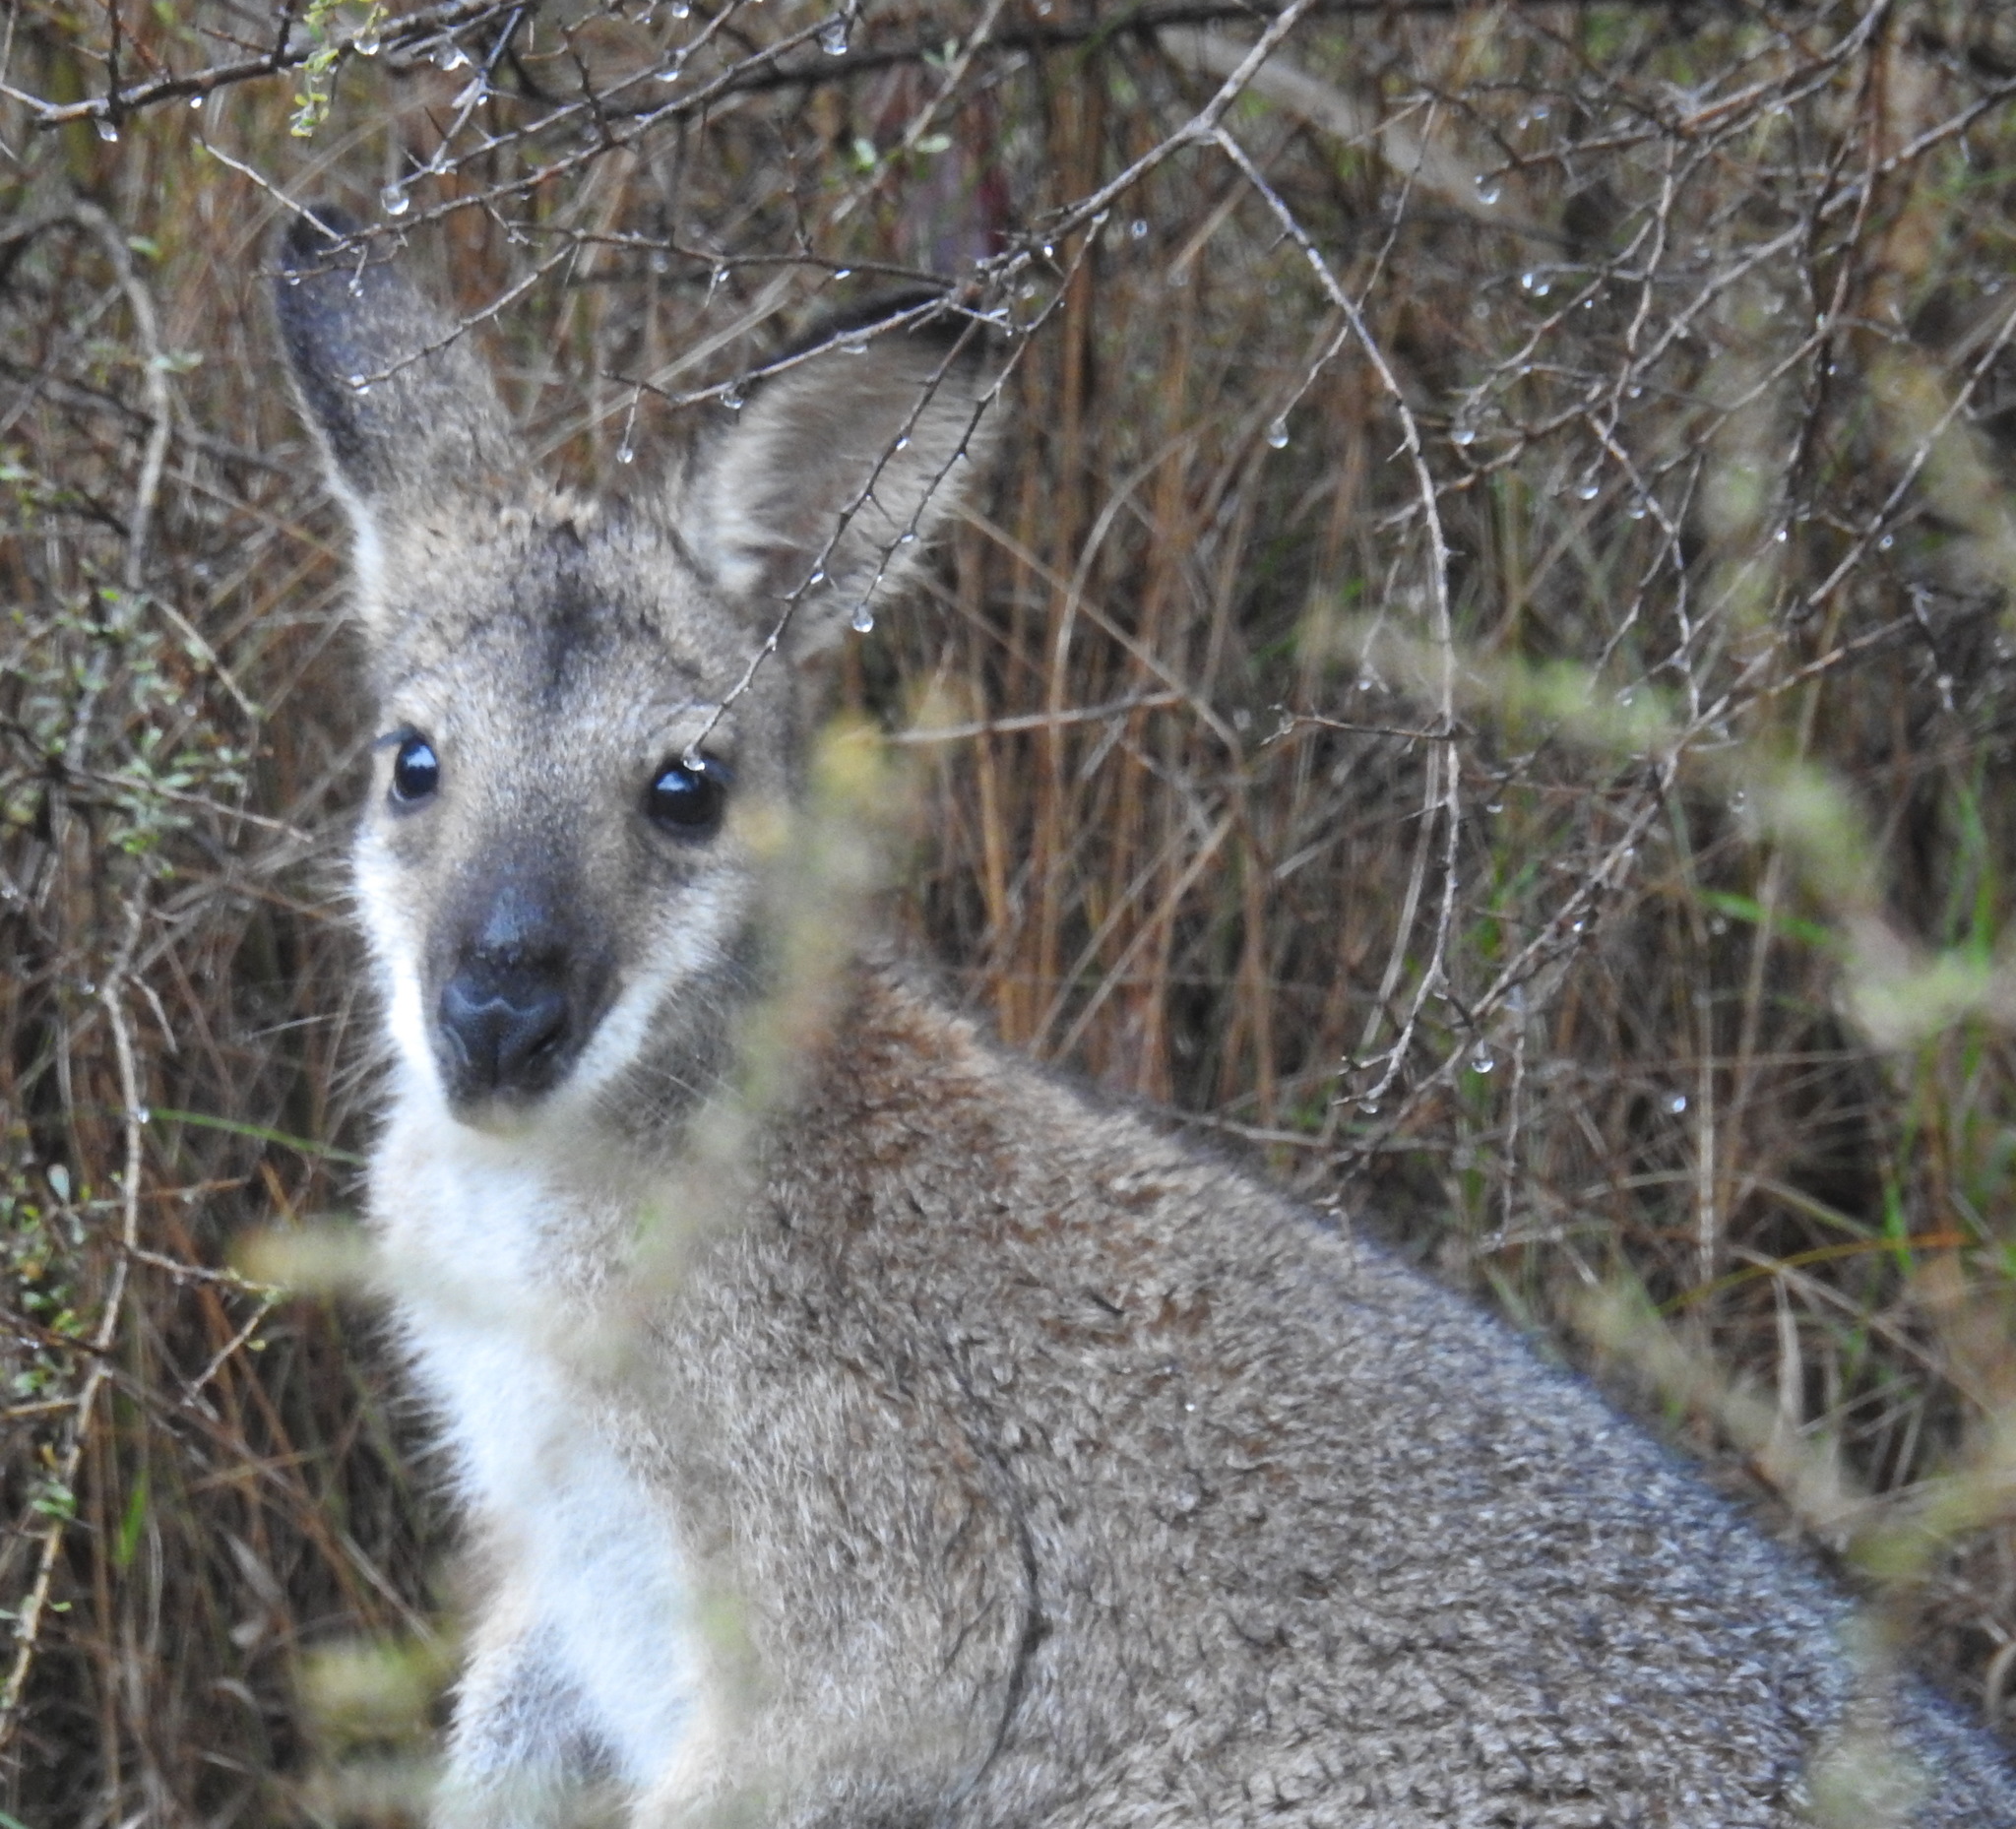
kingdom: Animalia
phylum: Chordata
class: Mammalia
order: Diprotodontia
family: Macropodidae
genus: Notamacropus
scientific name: Notamacropus rufogriseus
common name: Red-necked wallaby
